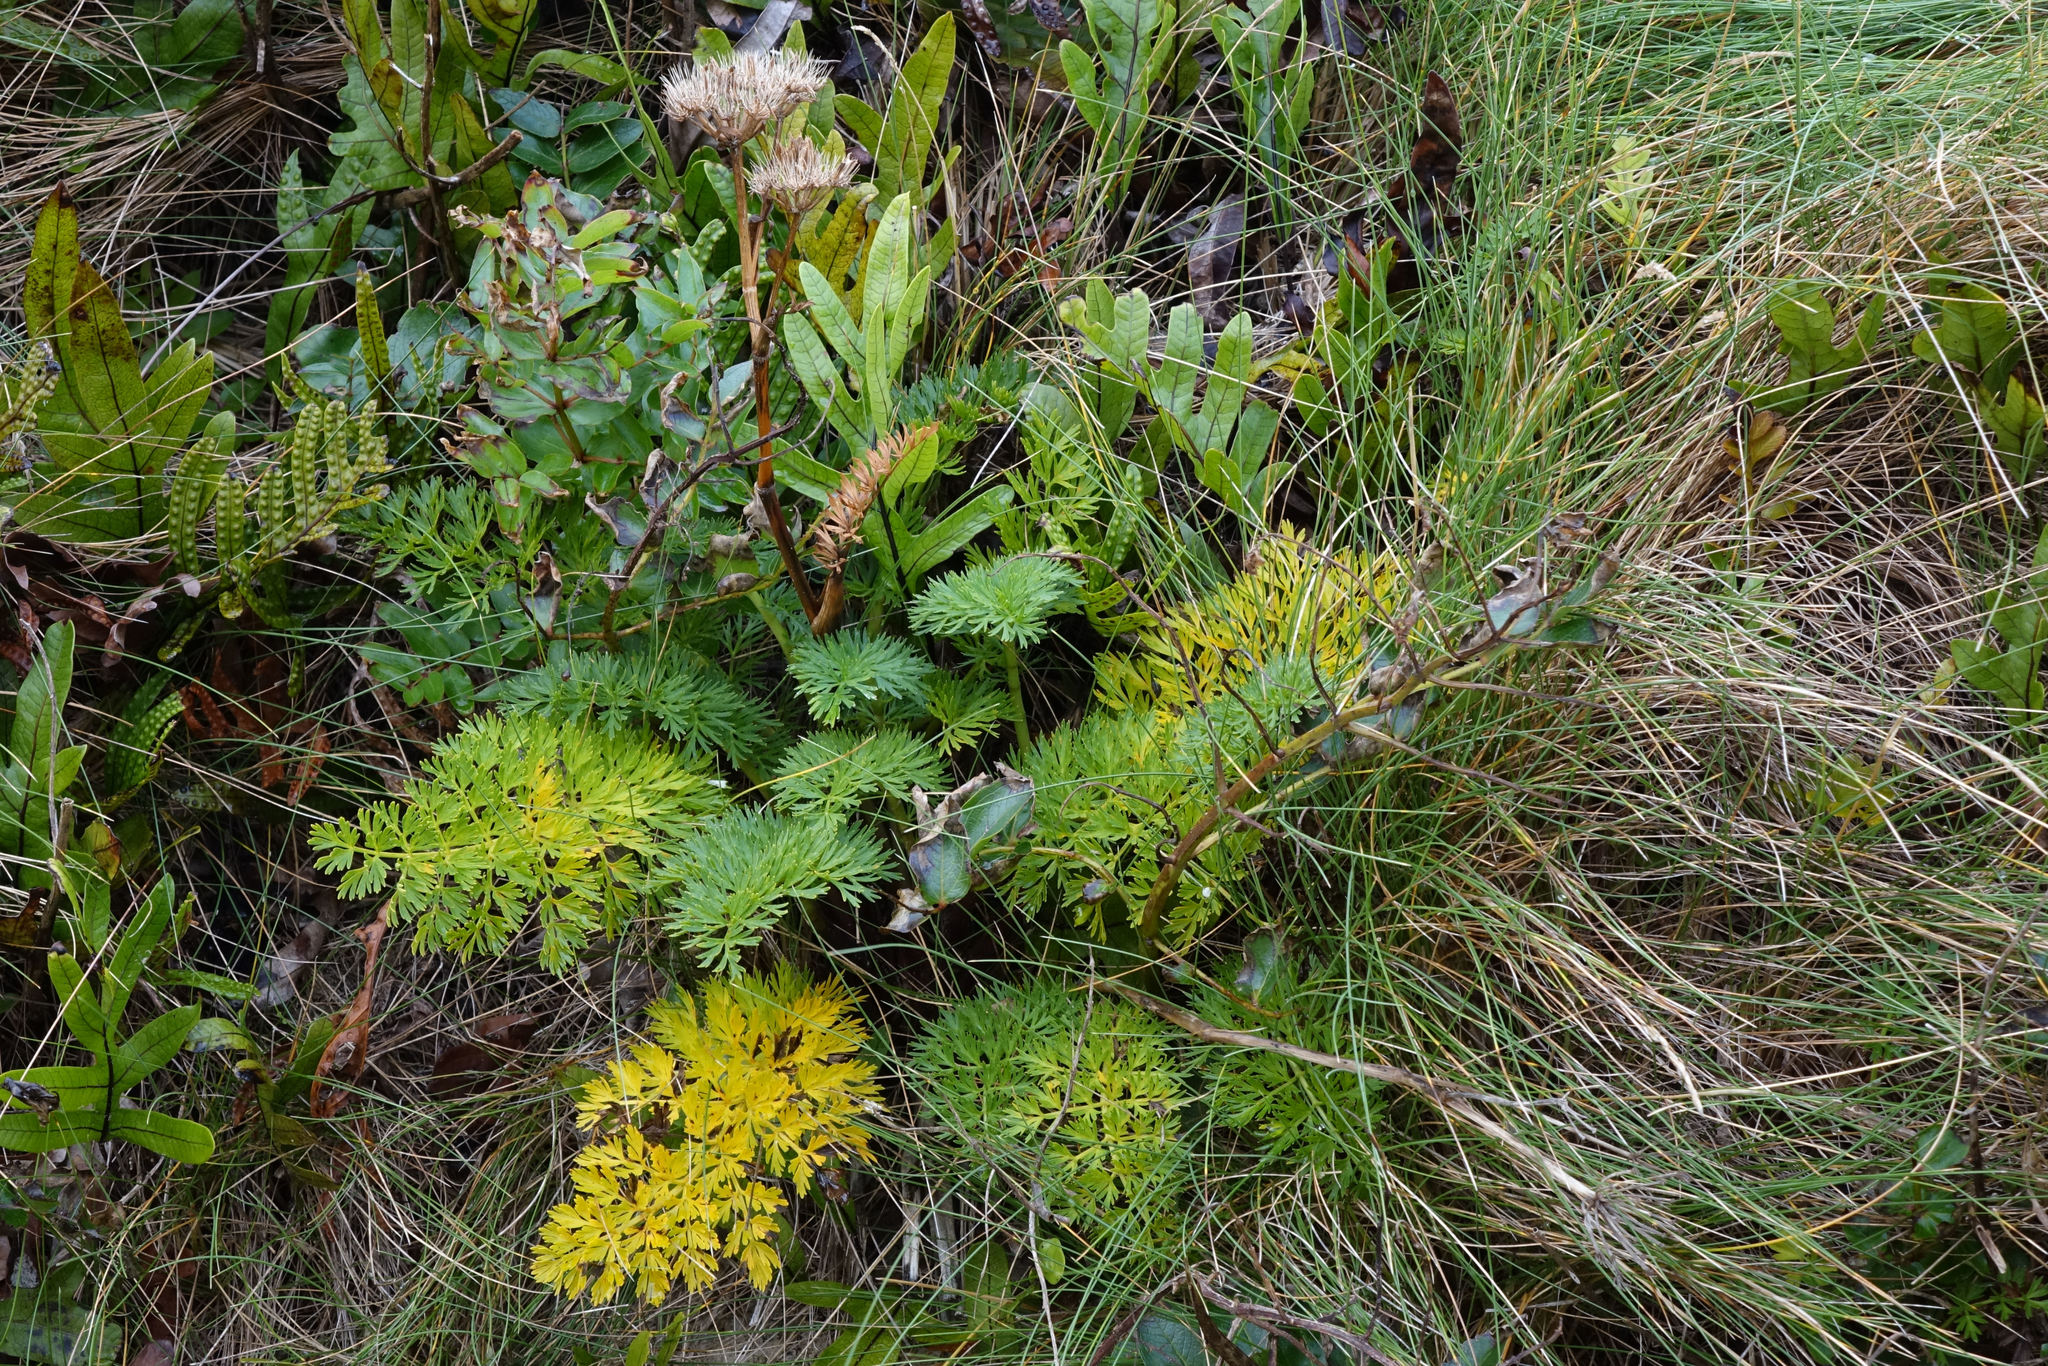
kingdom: Plantae
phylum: Tracheophyta
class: Magnoliopsida
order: Apiales
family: Apiaceae
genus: Anisotome
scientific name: Anisotome lyallii
